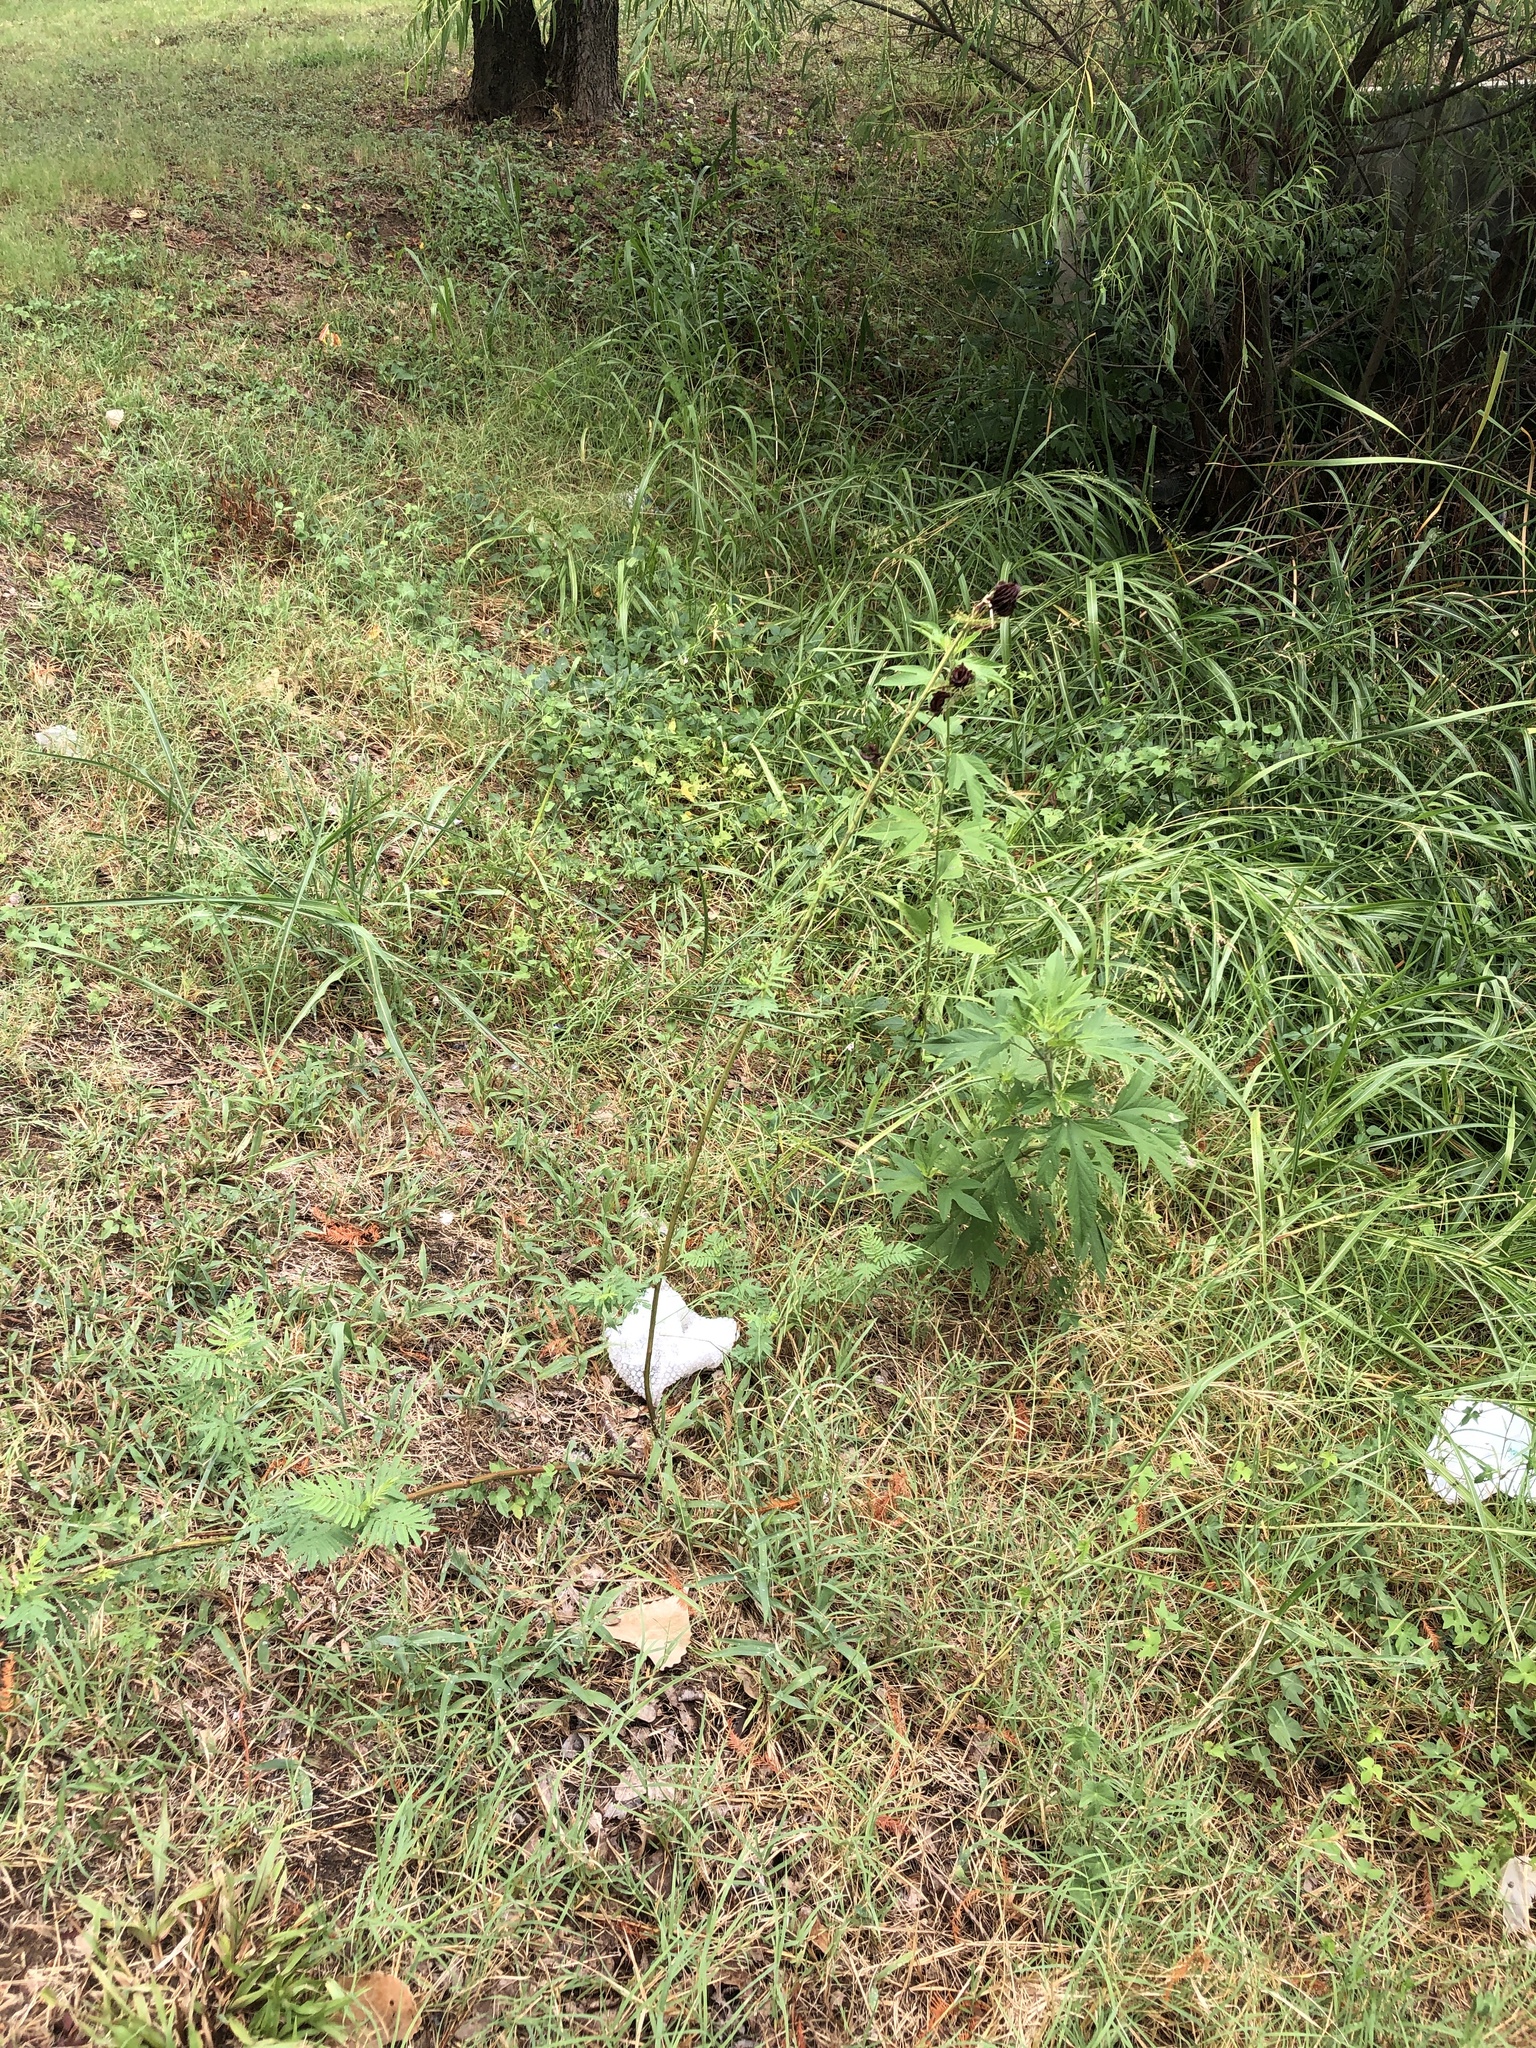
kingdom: Plantae
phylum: Tracheophyta
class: Magnoliopsida
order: Fabales
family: Fabaceae
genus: Desmanthus
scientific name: Desmanthus illinoensis
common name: Illinois bundle-flower
